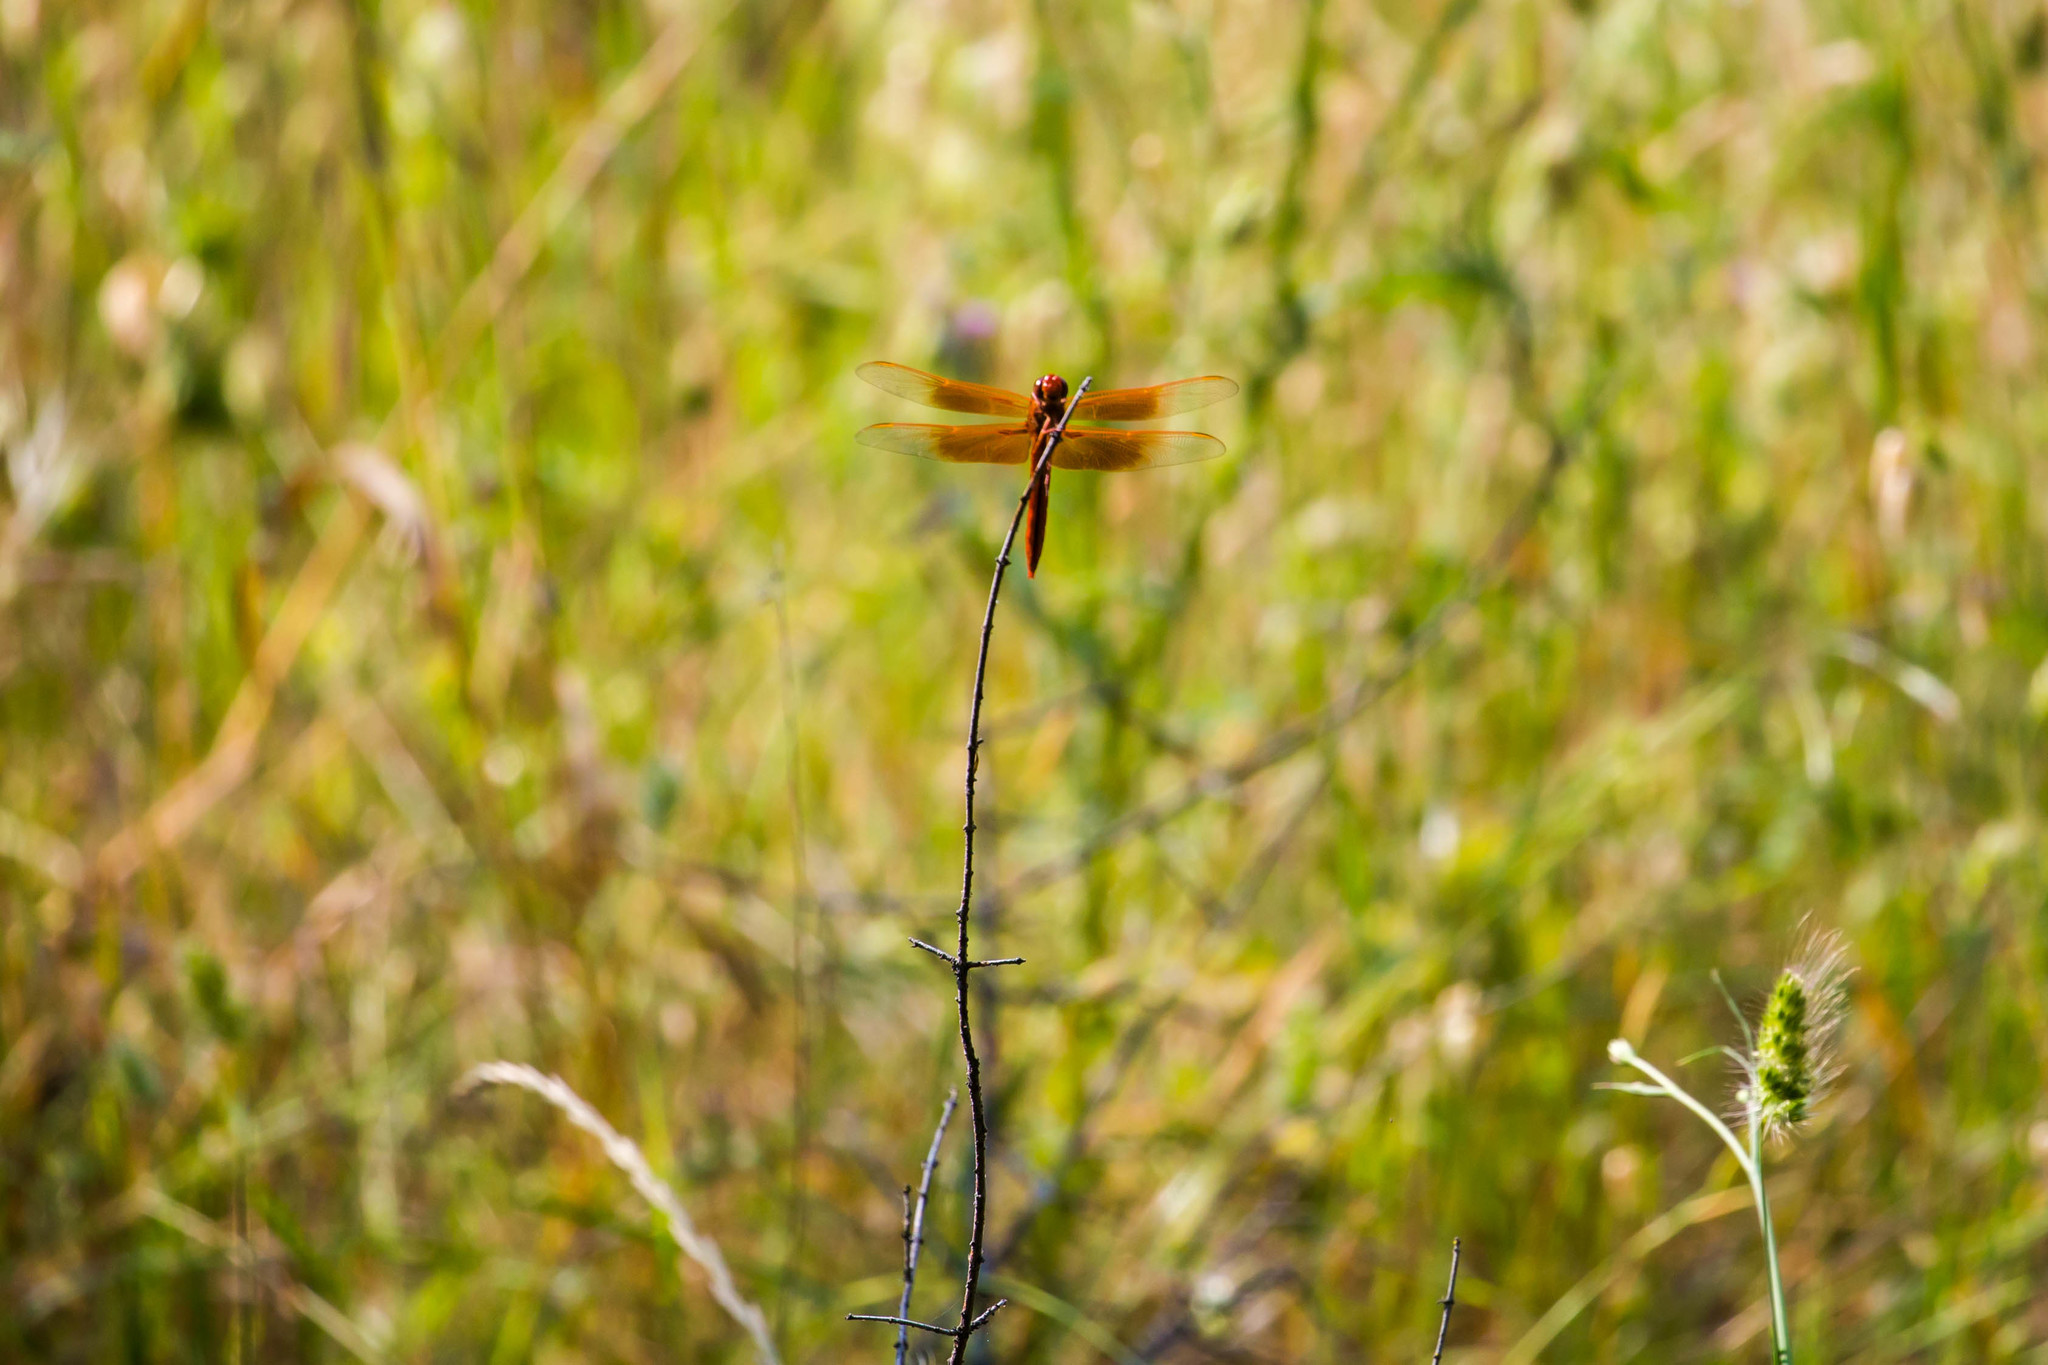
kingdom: Animalia
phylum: Arthropoda
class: Insecta
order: Odonata
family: Libellulidae
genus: Libellula
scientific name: Libellula saturata
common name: Flame skimmer
